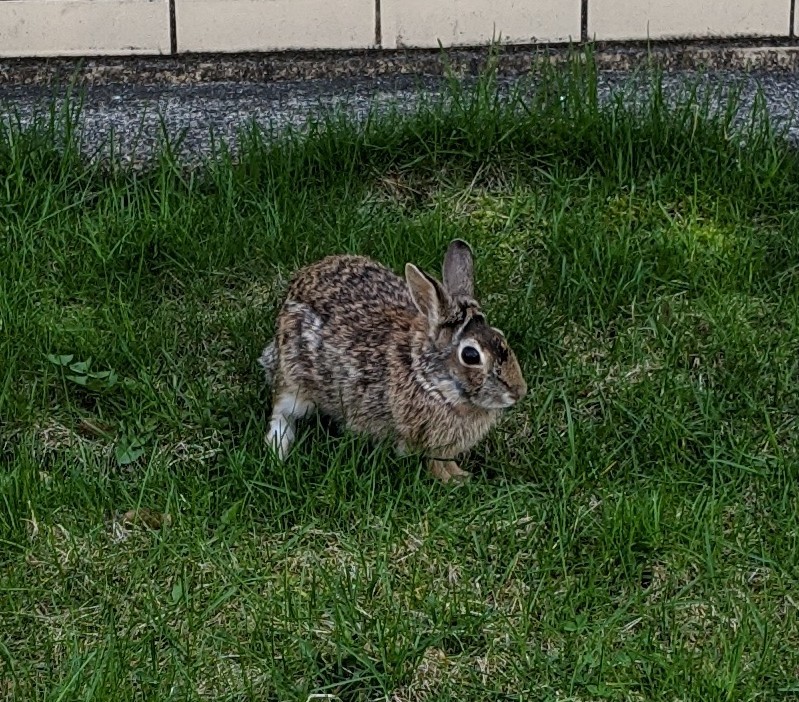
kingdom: Animalia
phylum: Chordata
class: Mammalia
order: Lagomorpha
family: Leporidae
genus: Sylvilagus
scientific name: Sylvilagus floridanus
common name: Eastern cottontail
